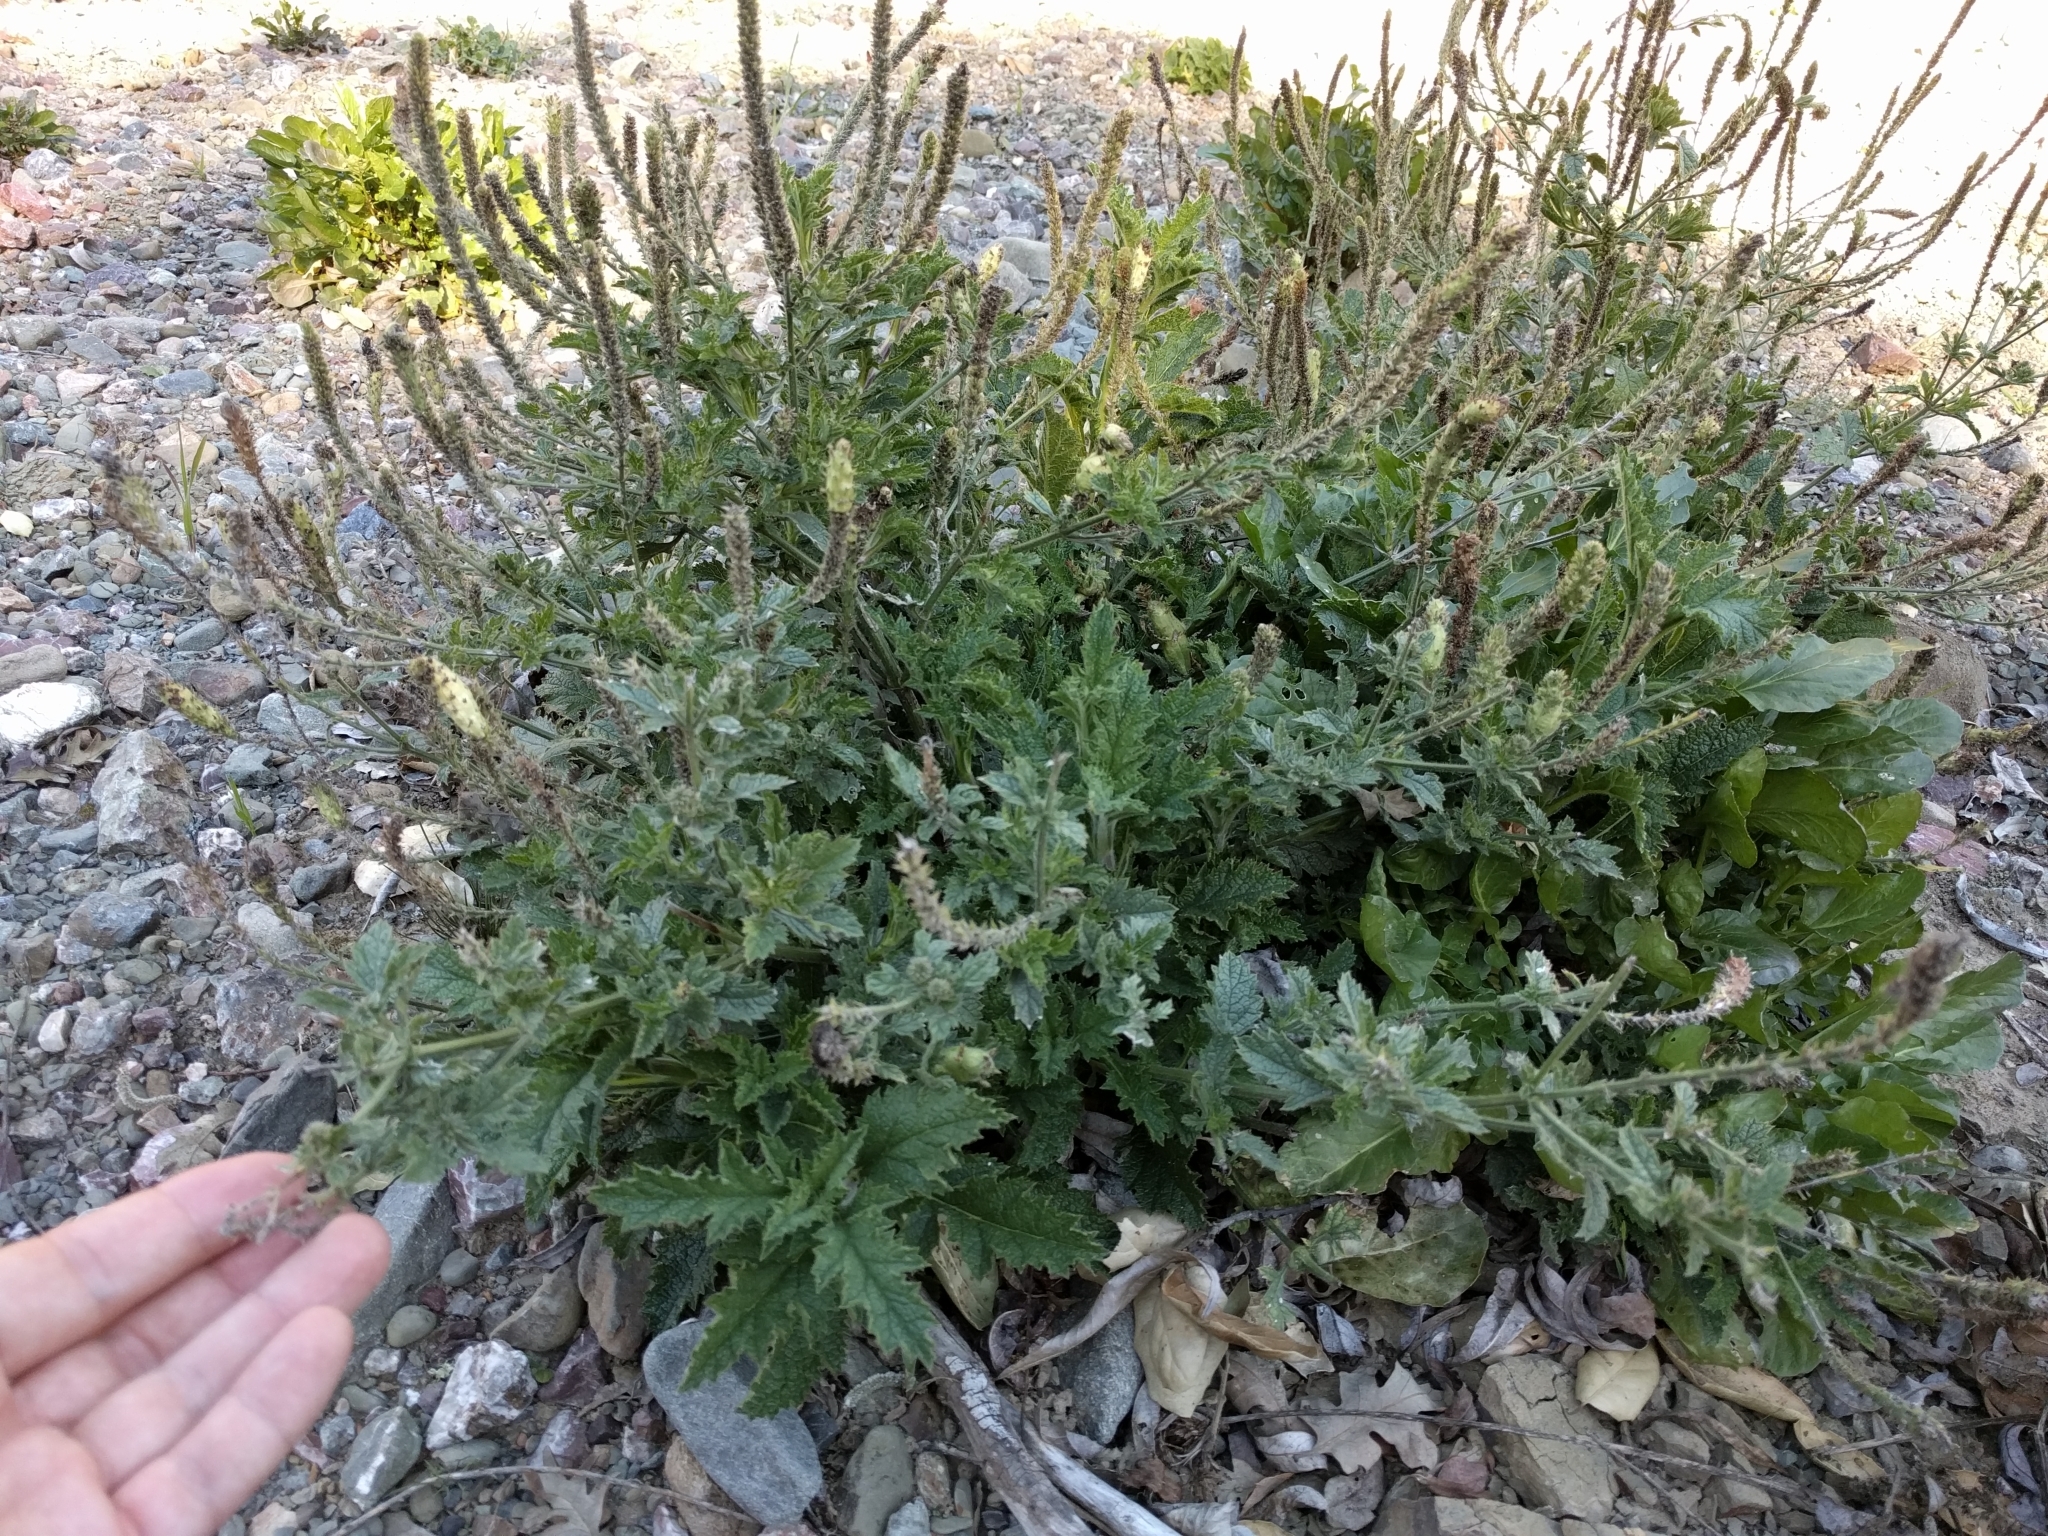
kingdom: Plantae
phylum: Tracheophyta
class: Magnoliopsida
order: Lamiales
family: Verbenaceae
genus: Verbena
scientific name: Verbena lasiostachys
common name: Vervain
